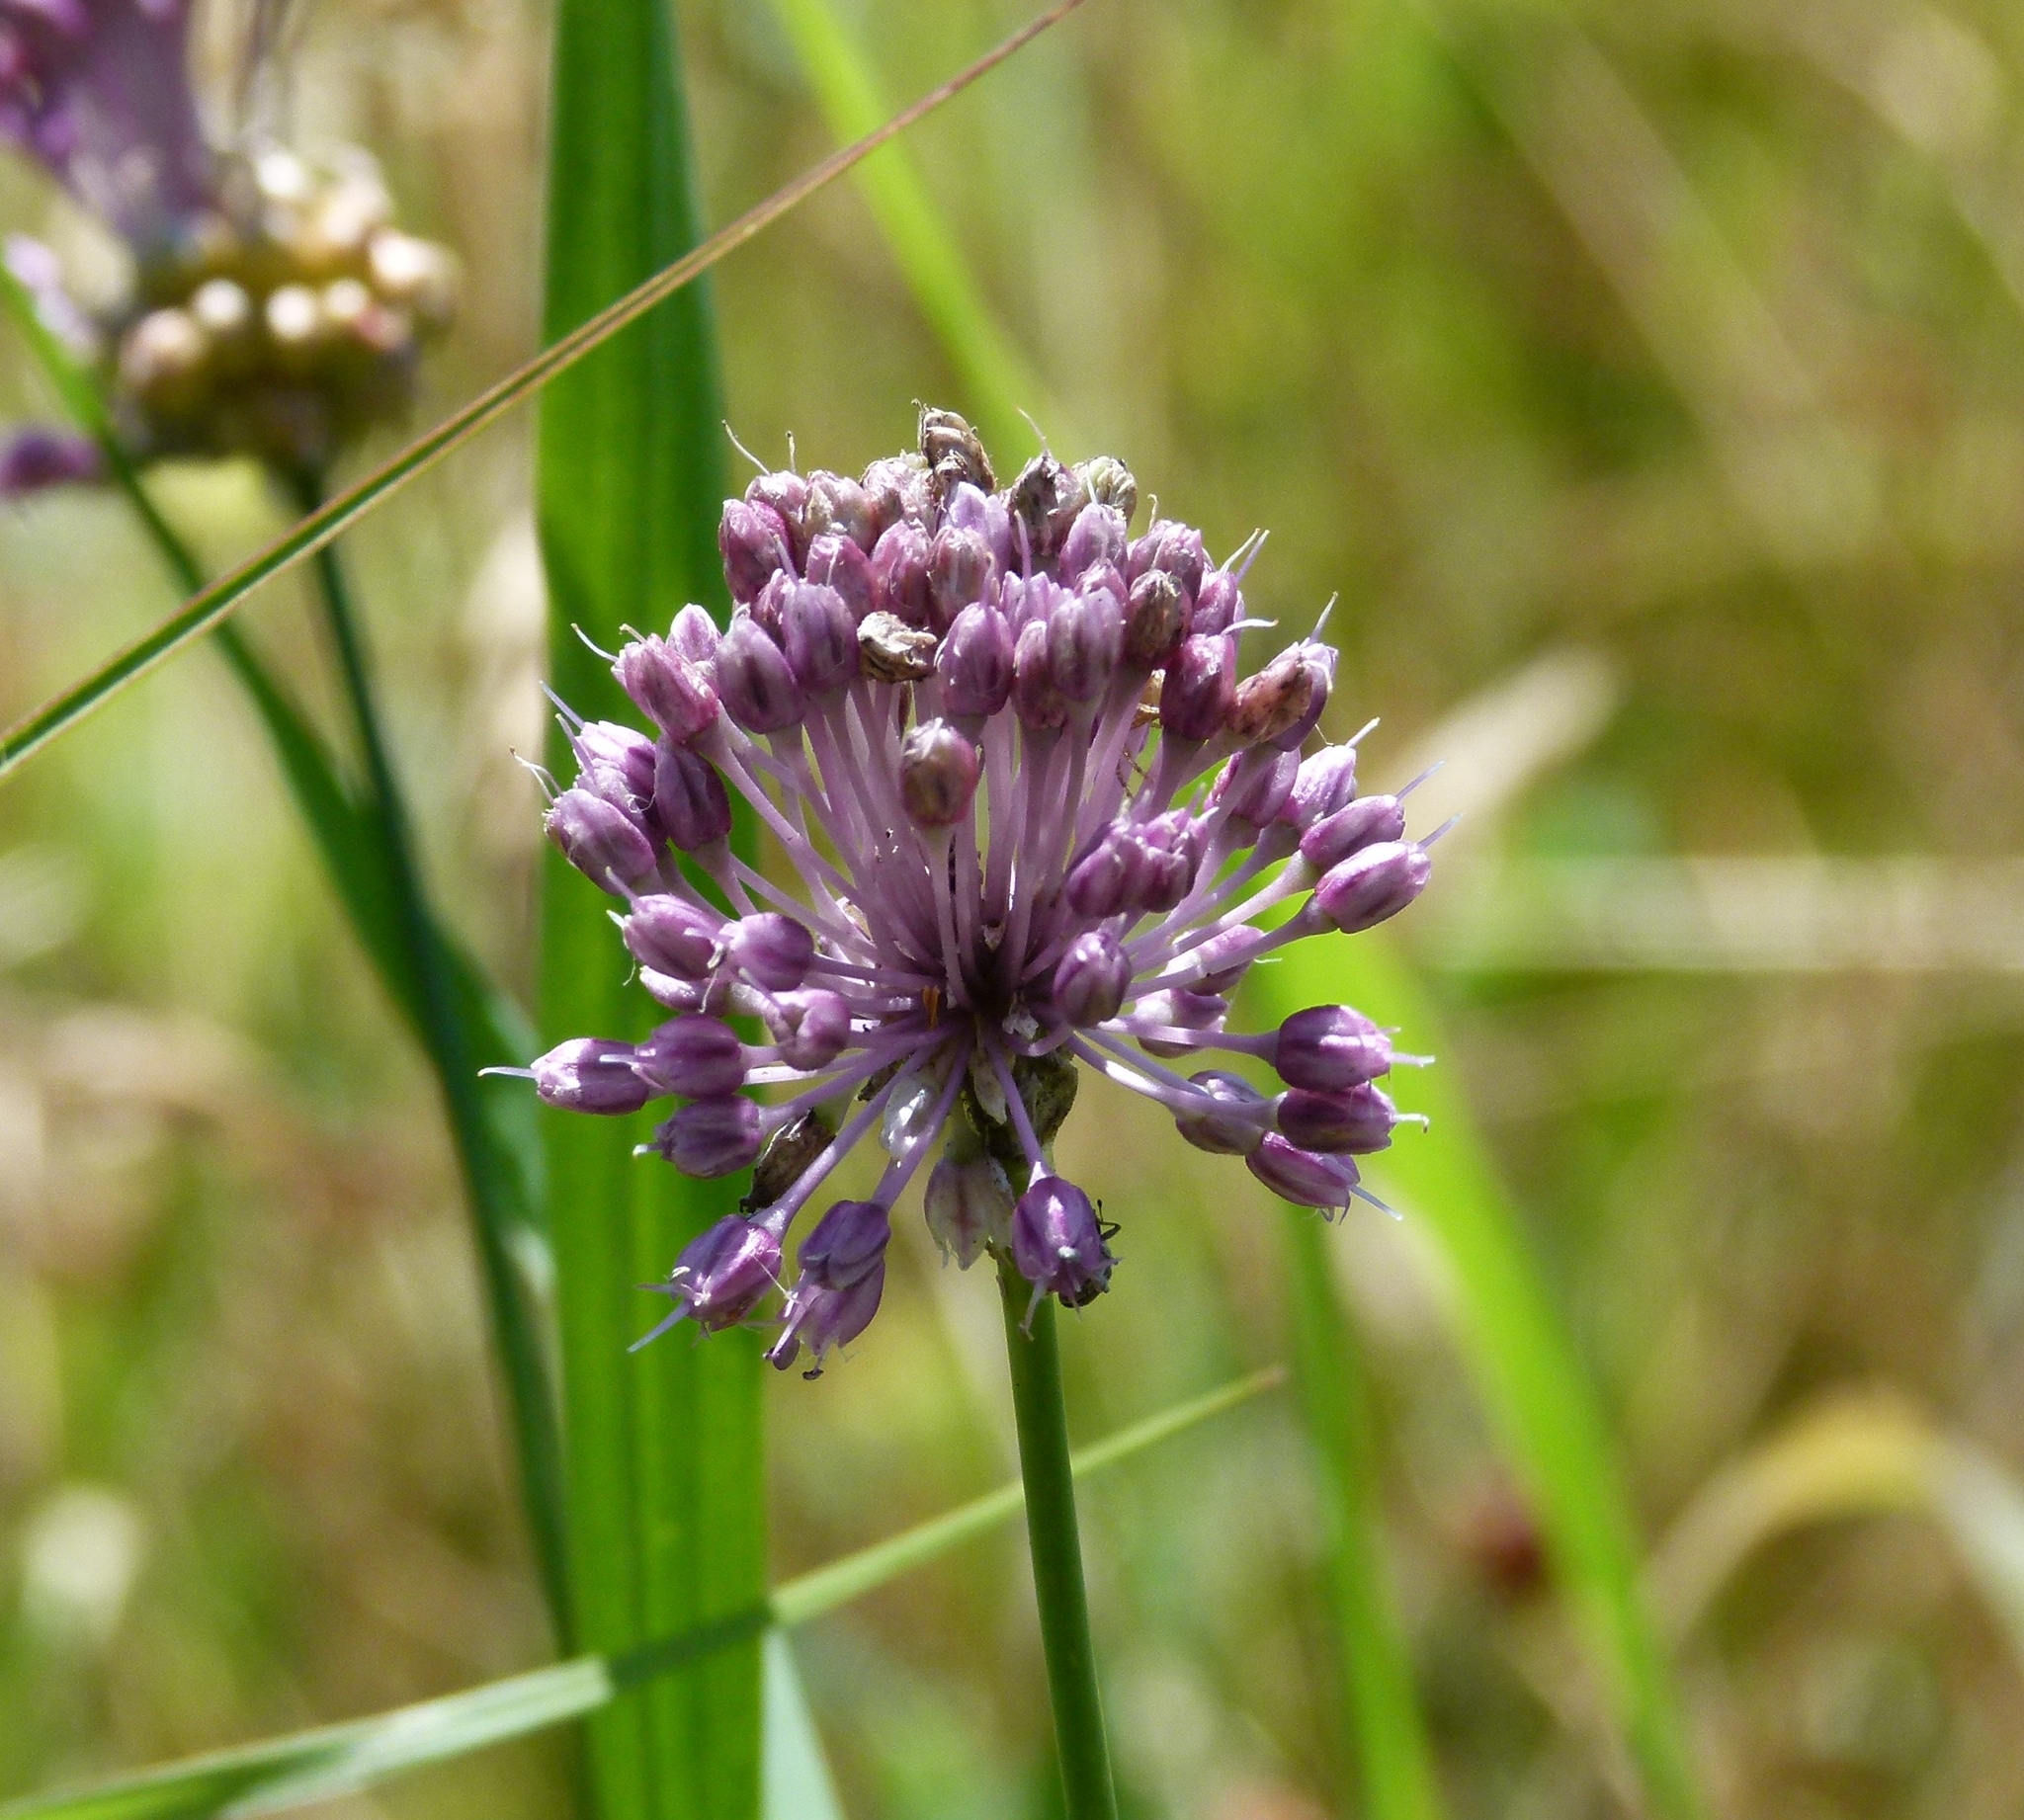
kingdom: Plantae
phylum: Tracheophyta
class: Liliopsida
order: Asparagales
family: Amaryllidaceae
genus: Allium
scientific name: Allium vineale
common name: Crow garlic
